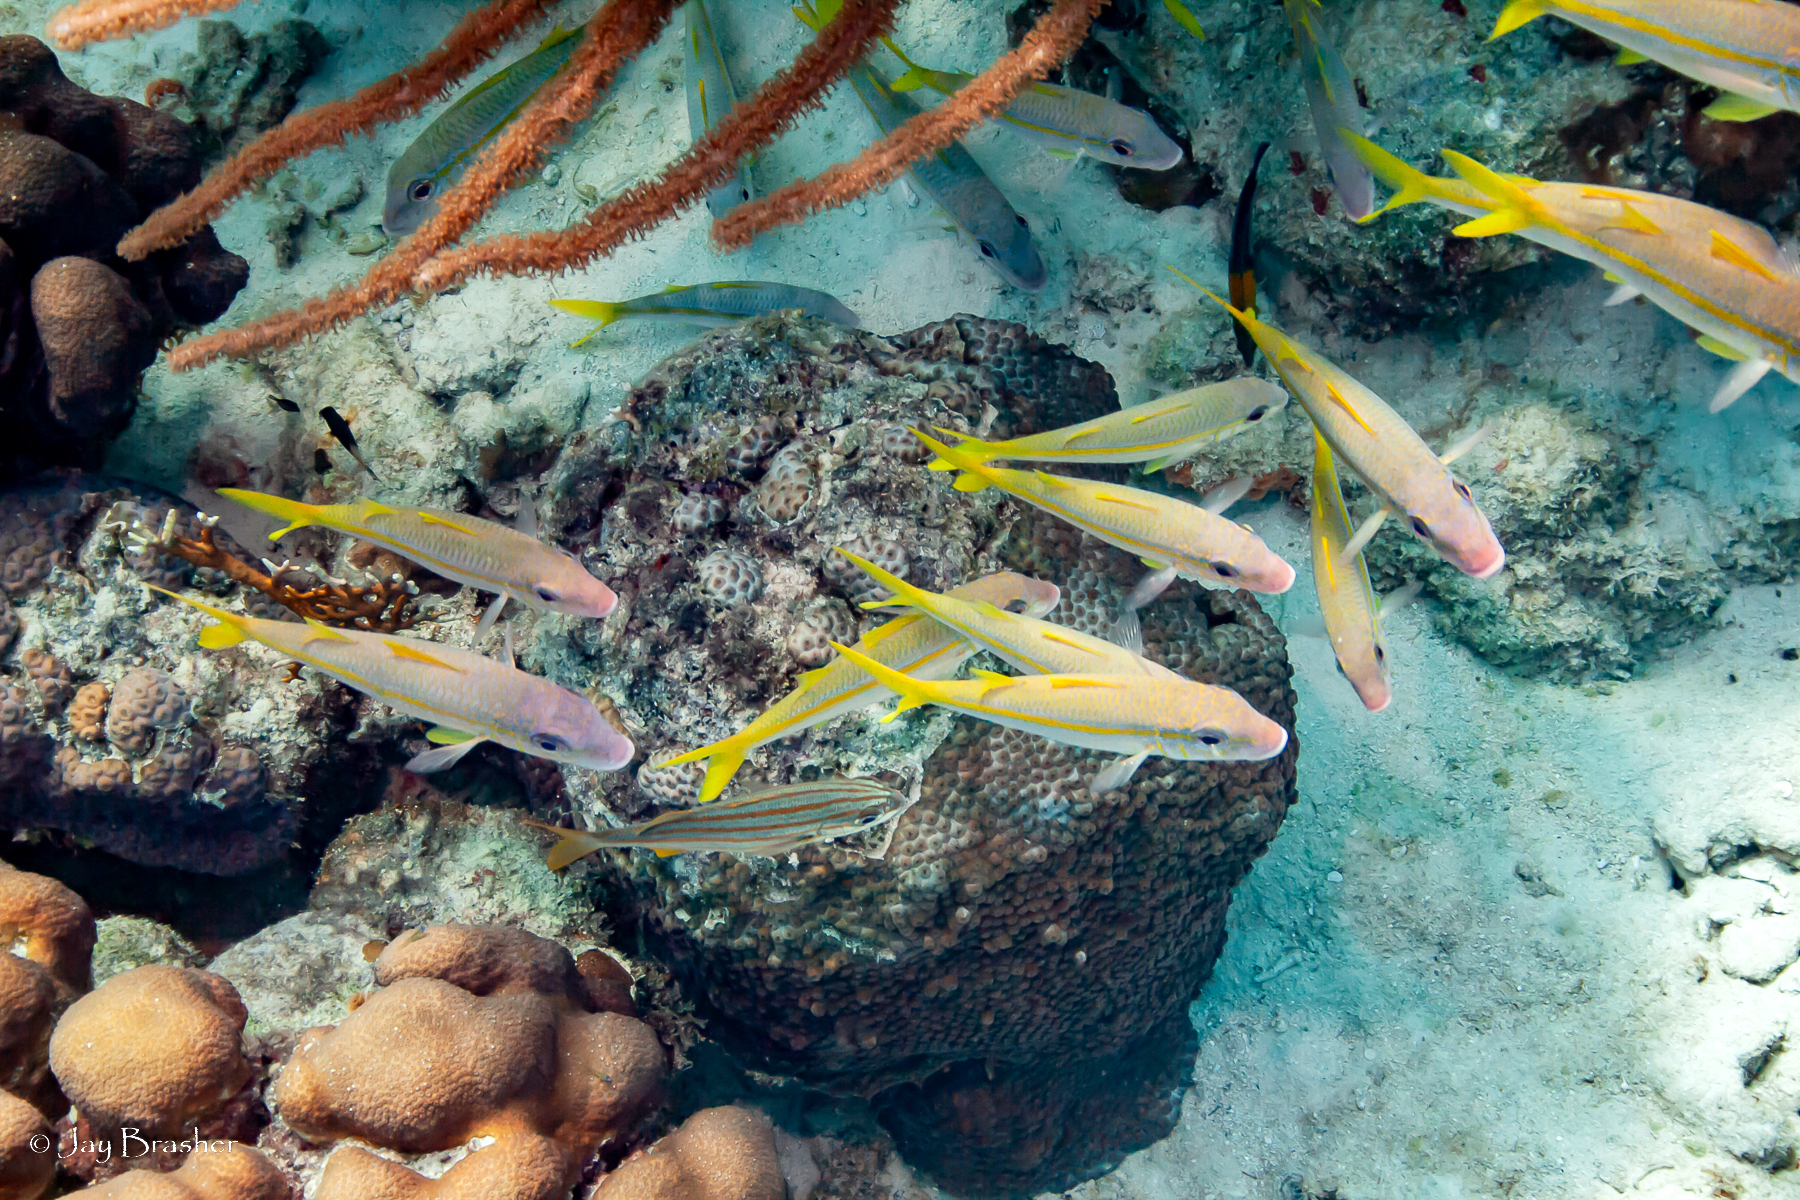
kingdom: Animalia
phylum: Cnidaria
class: Anthozoa
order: Scleractinia
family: Merulinidae
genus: Orbicella
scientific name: Orbicella annularis
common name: Boulder star coral
